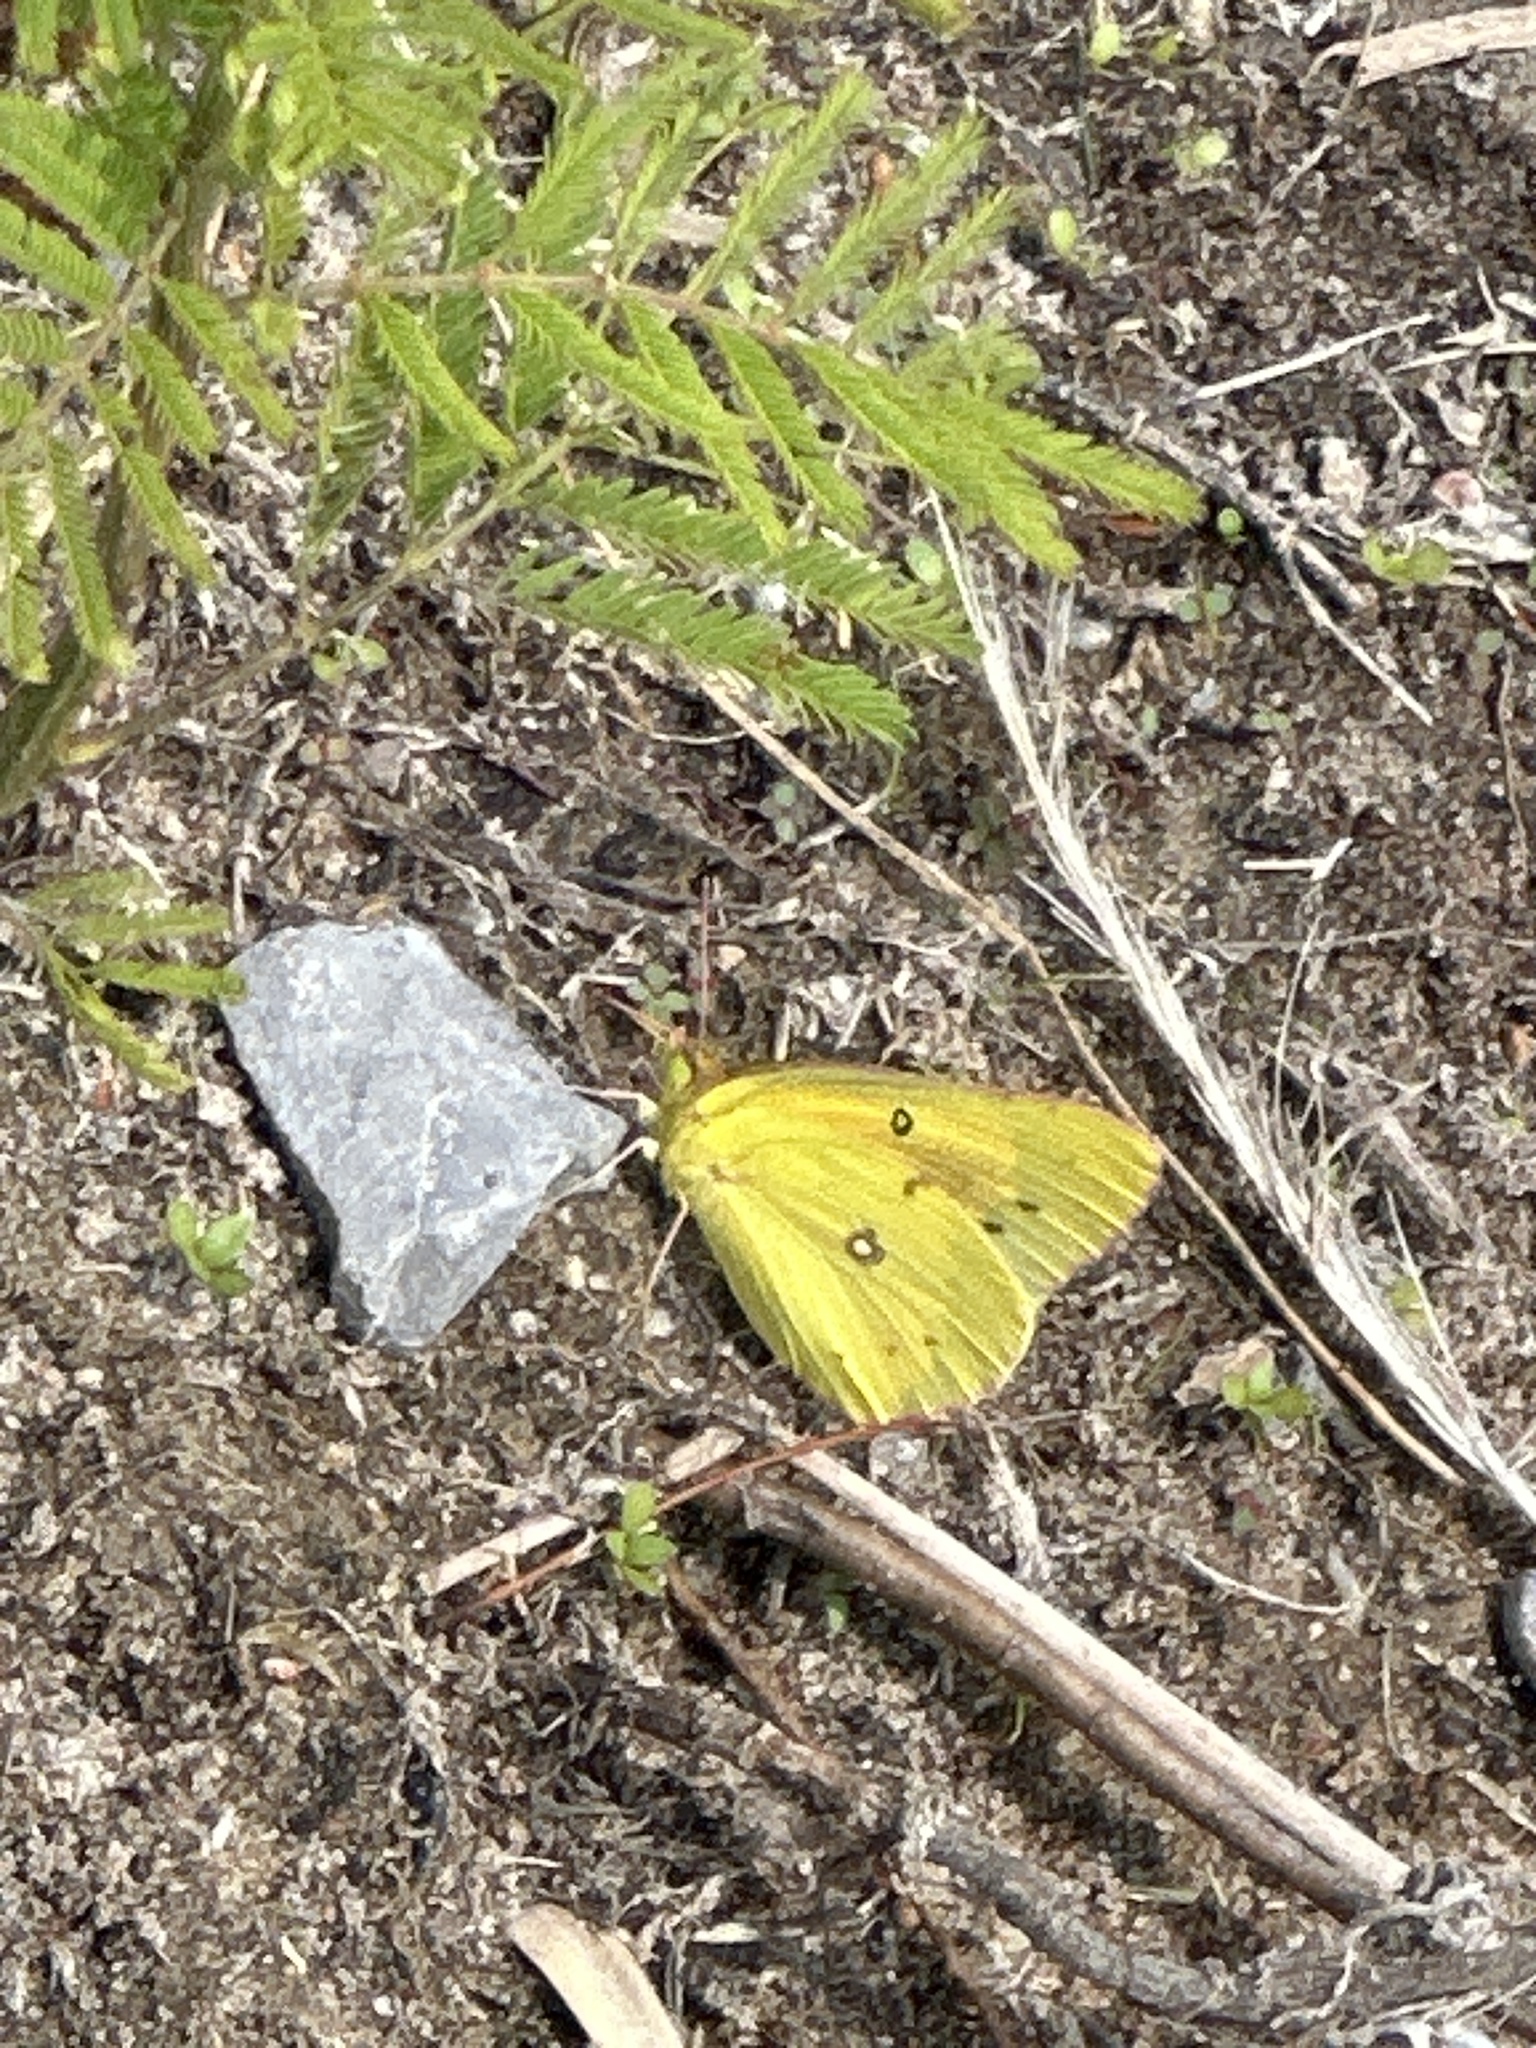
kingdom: Animalia
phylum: Arthropoda
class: Insecta
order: Lepidoptera
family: Pieridae
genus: Colias
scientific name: Colias eurytheme
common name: Alfalfa butterfly
